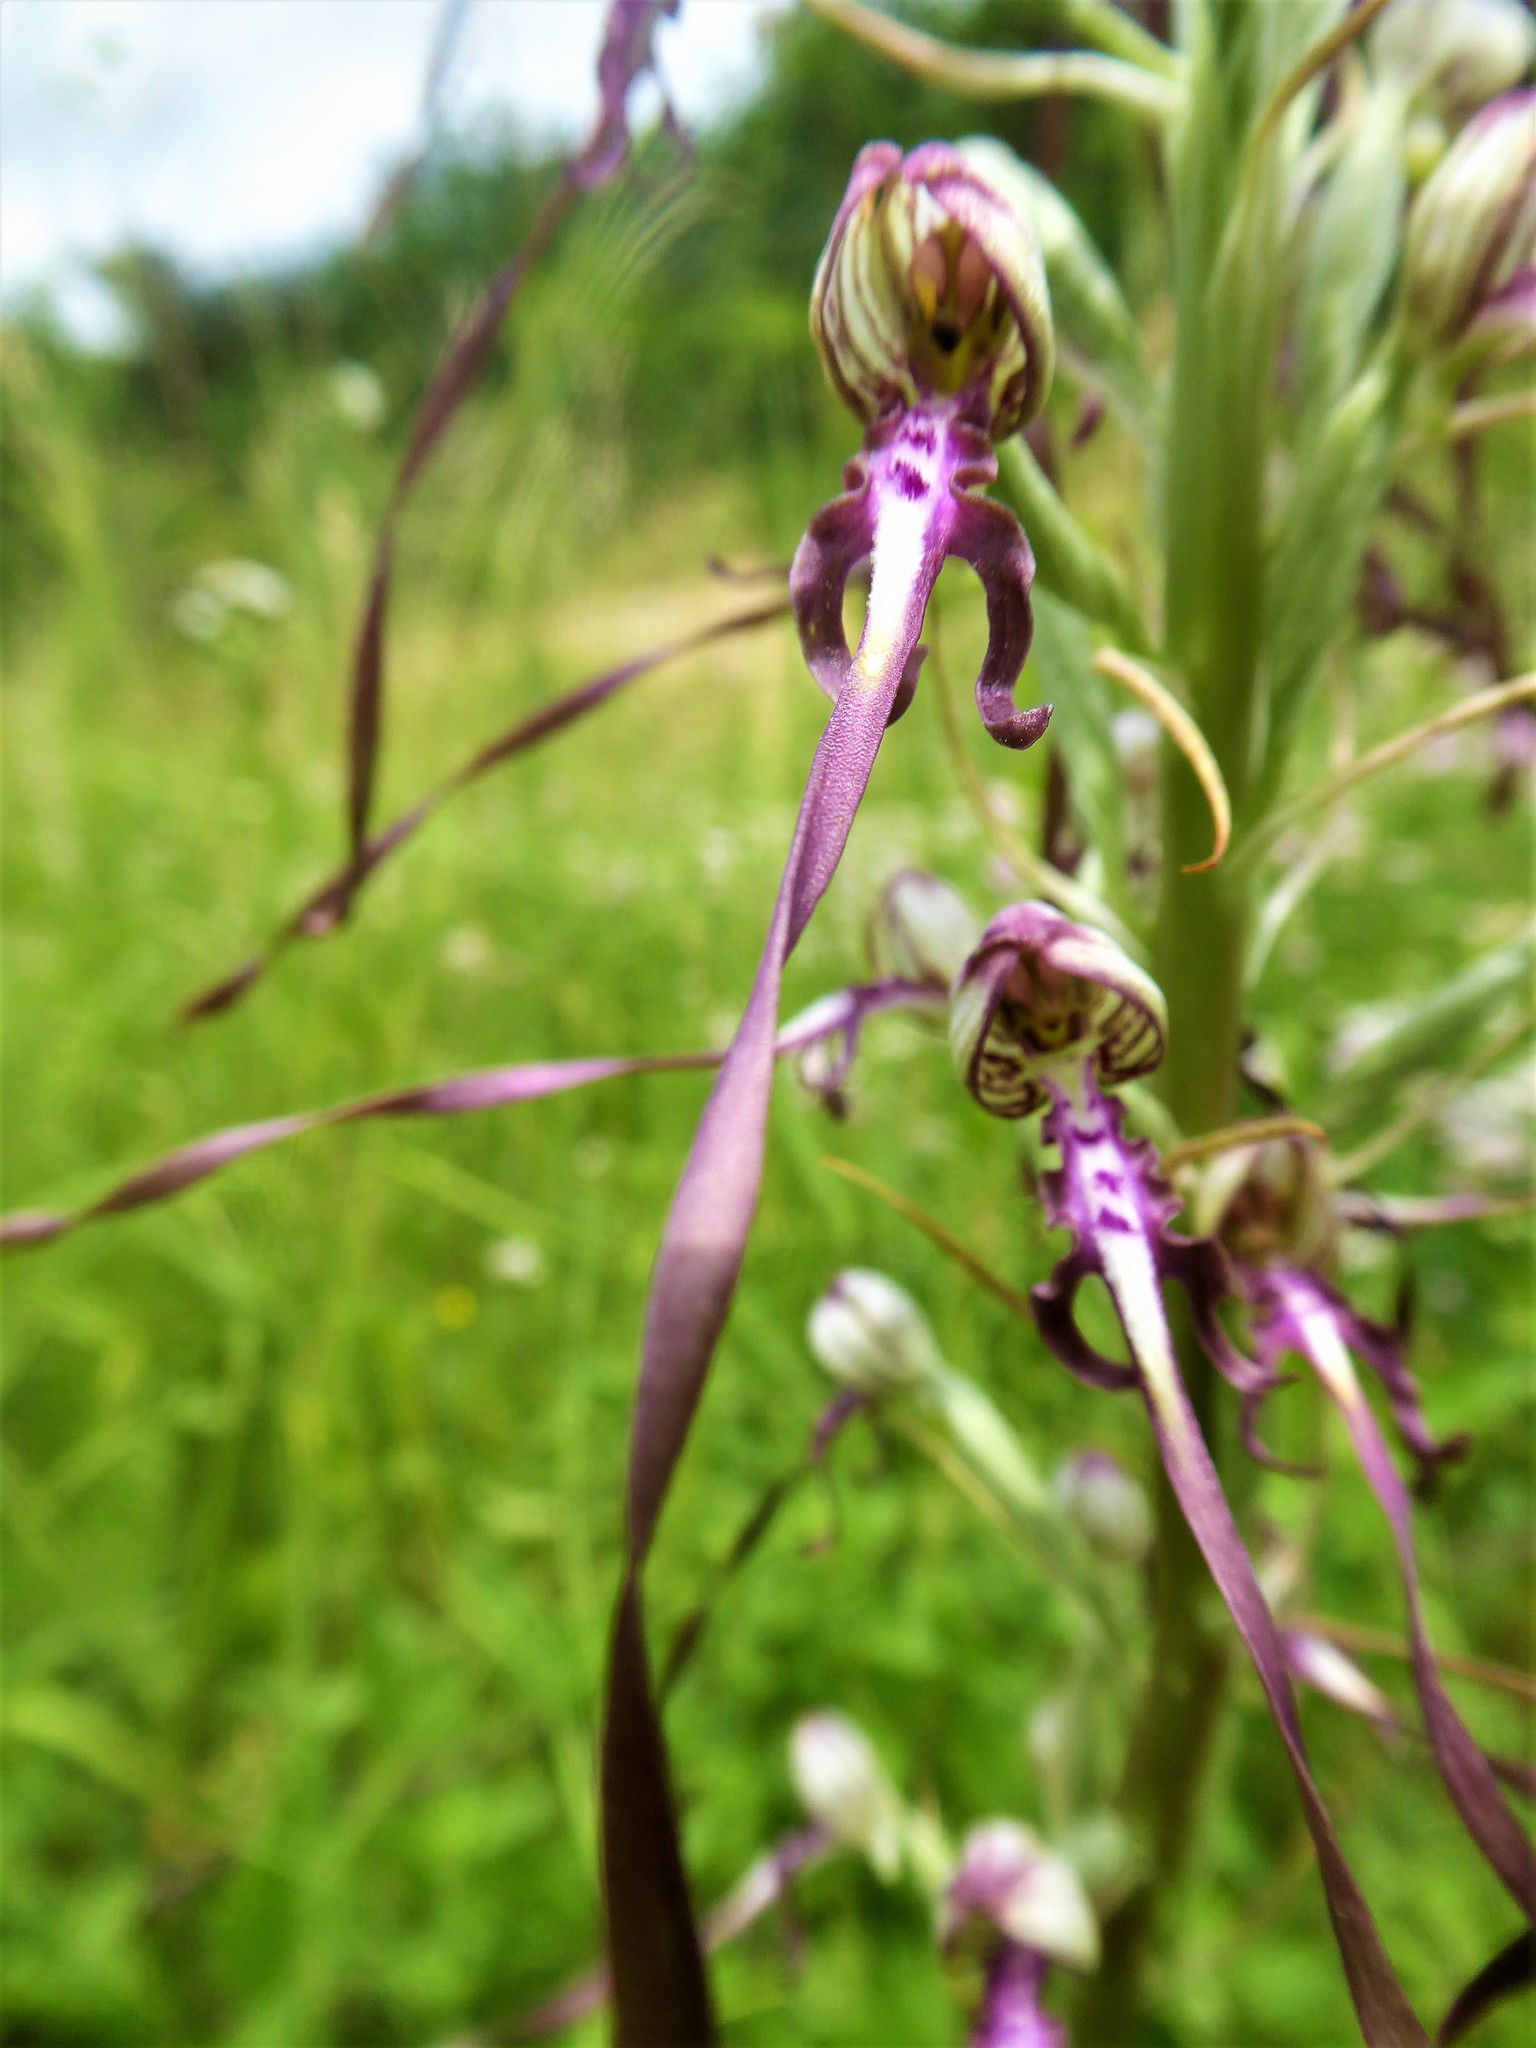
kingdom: Plantae
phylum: Tracheophyta
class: Liliopsida
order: Asparagales
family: Orchidaceae
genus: Himantoglossum
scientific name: Himantoglossum adriaticum
